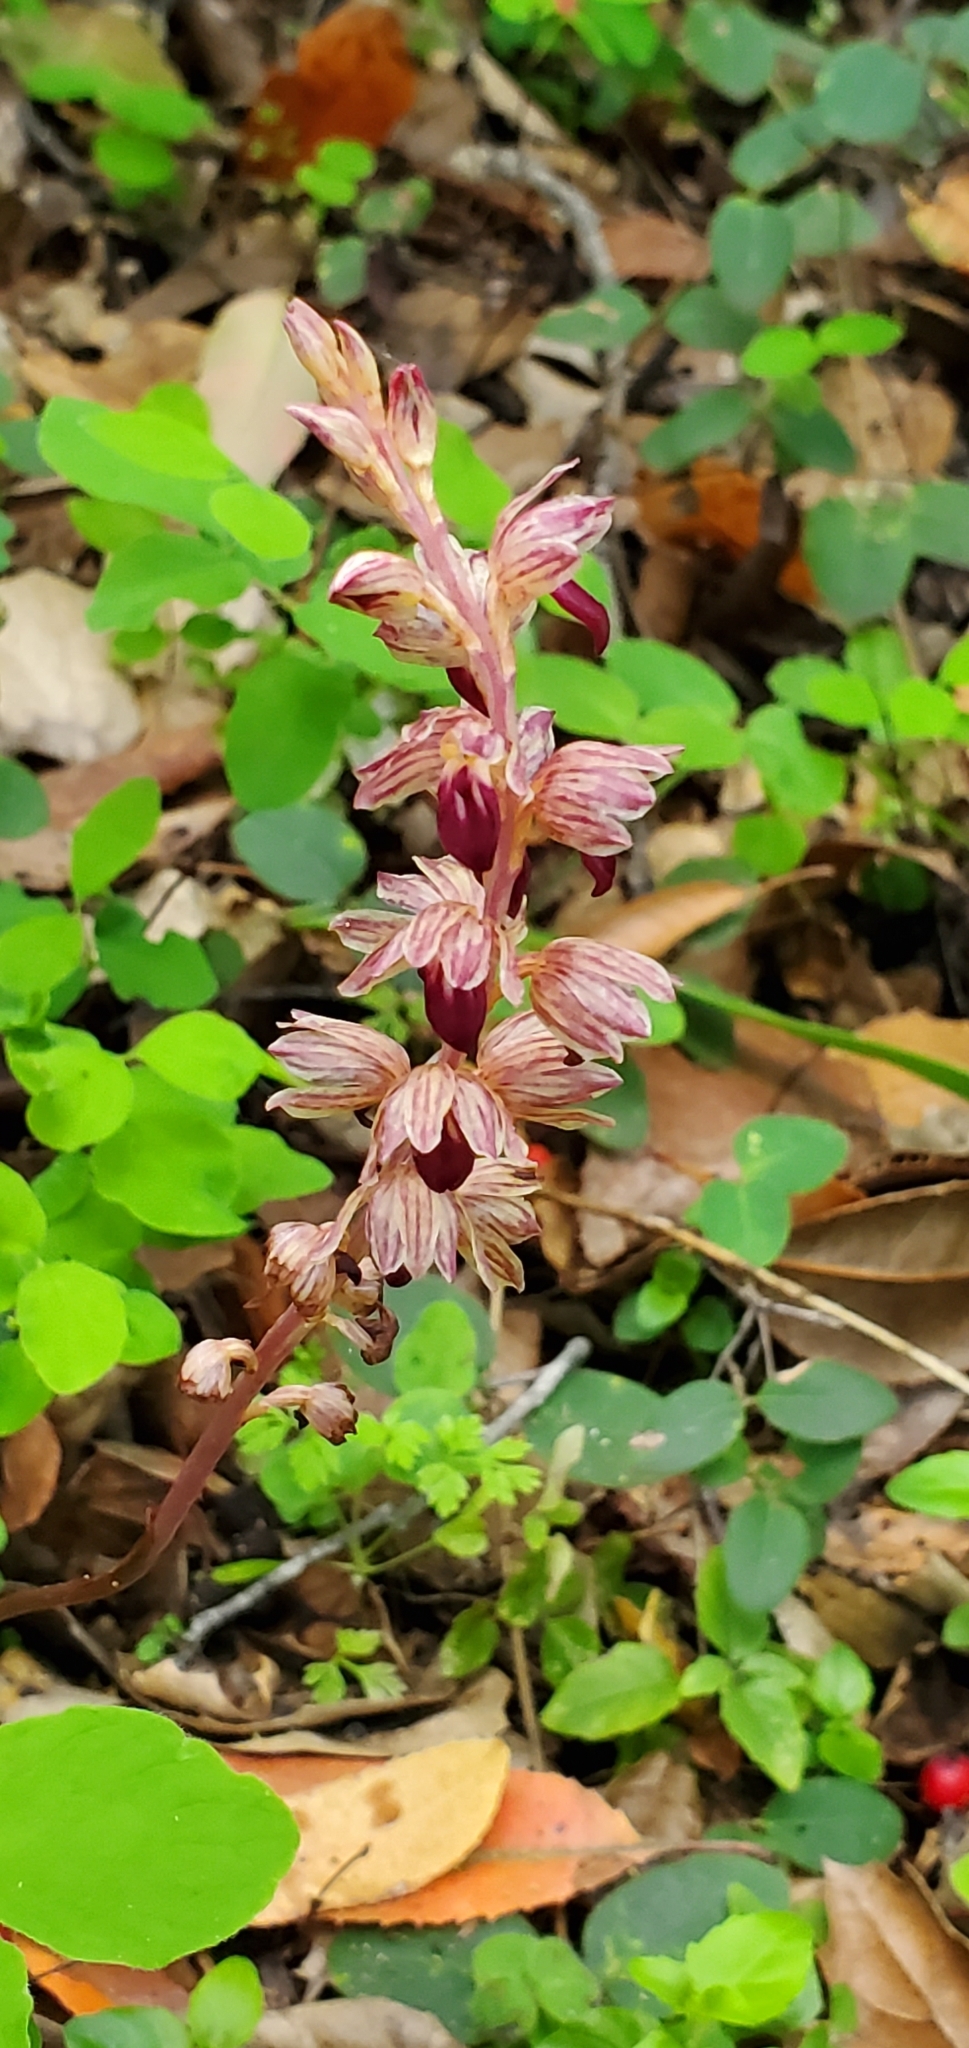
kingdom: Plantae
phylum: Tracheophyta
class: Liliopsida
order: Asparagales
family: Orchidaceae
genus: Corallorhiza
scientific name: Corallorhiza striata
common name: Hooded coralroot
